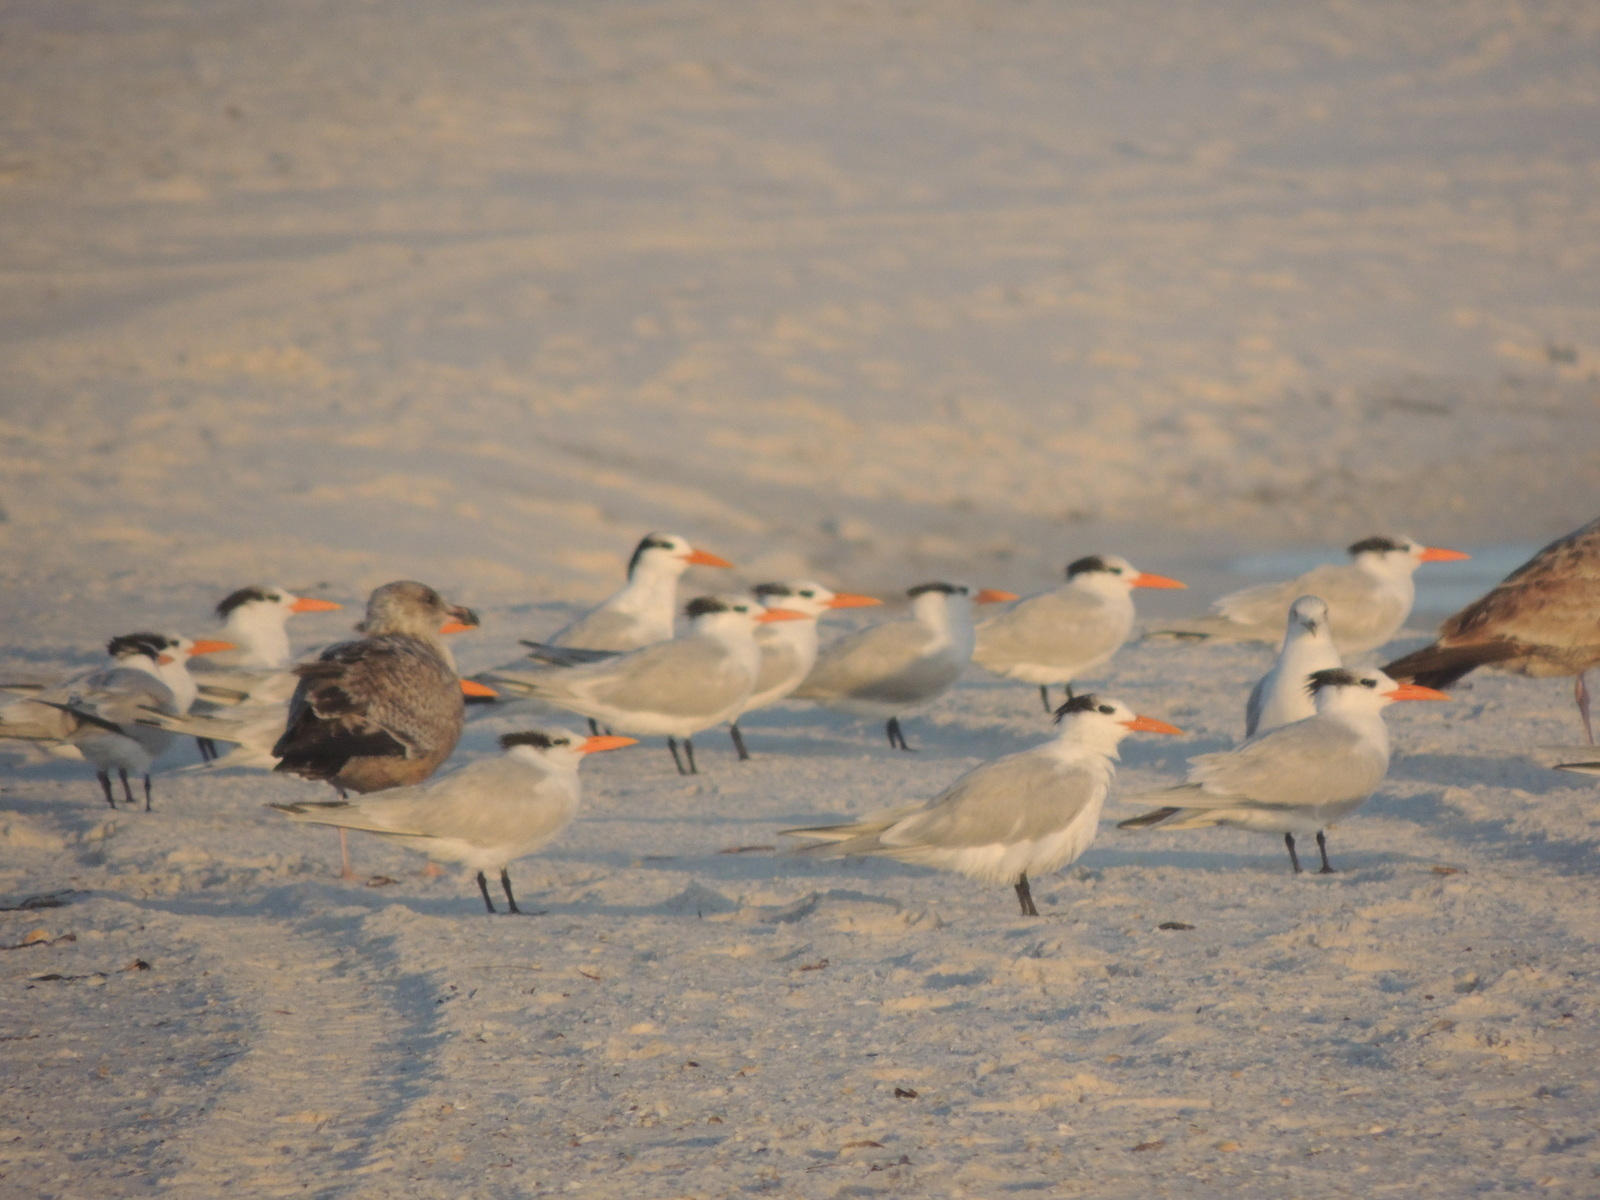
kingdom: Animalia
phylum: Chordata
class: Aves
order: Charadriiformes
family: Laridae
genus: Thalasseus
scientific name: Thalasseus maximus
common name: Royal tern
